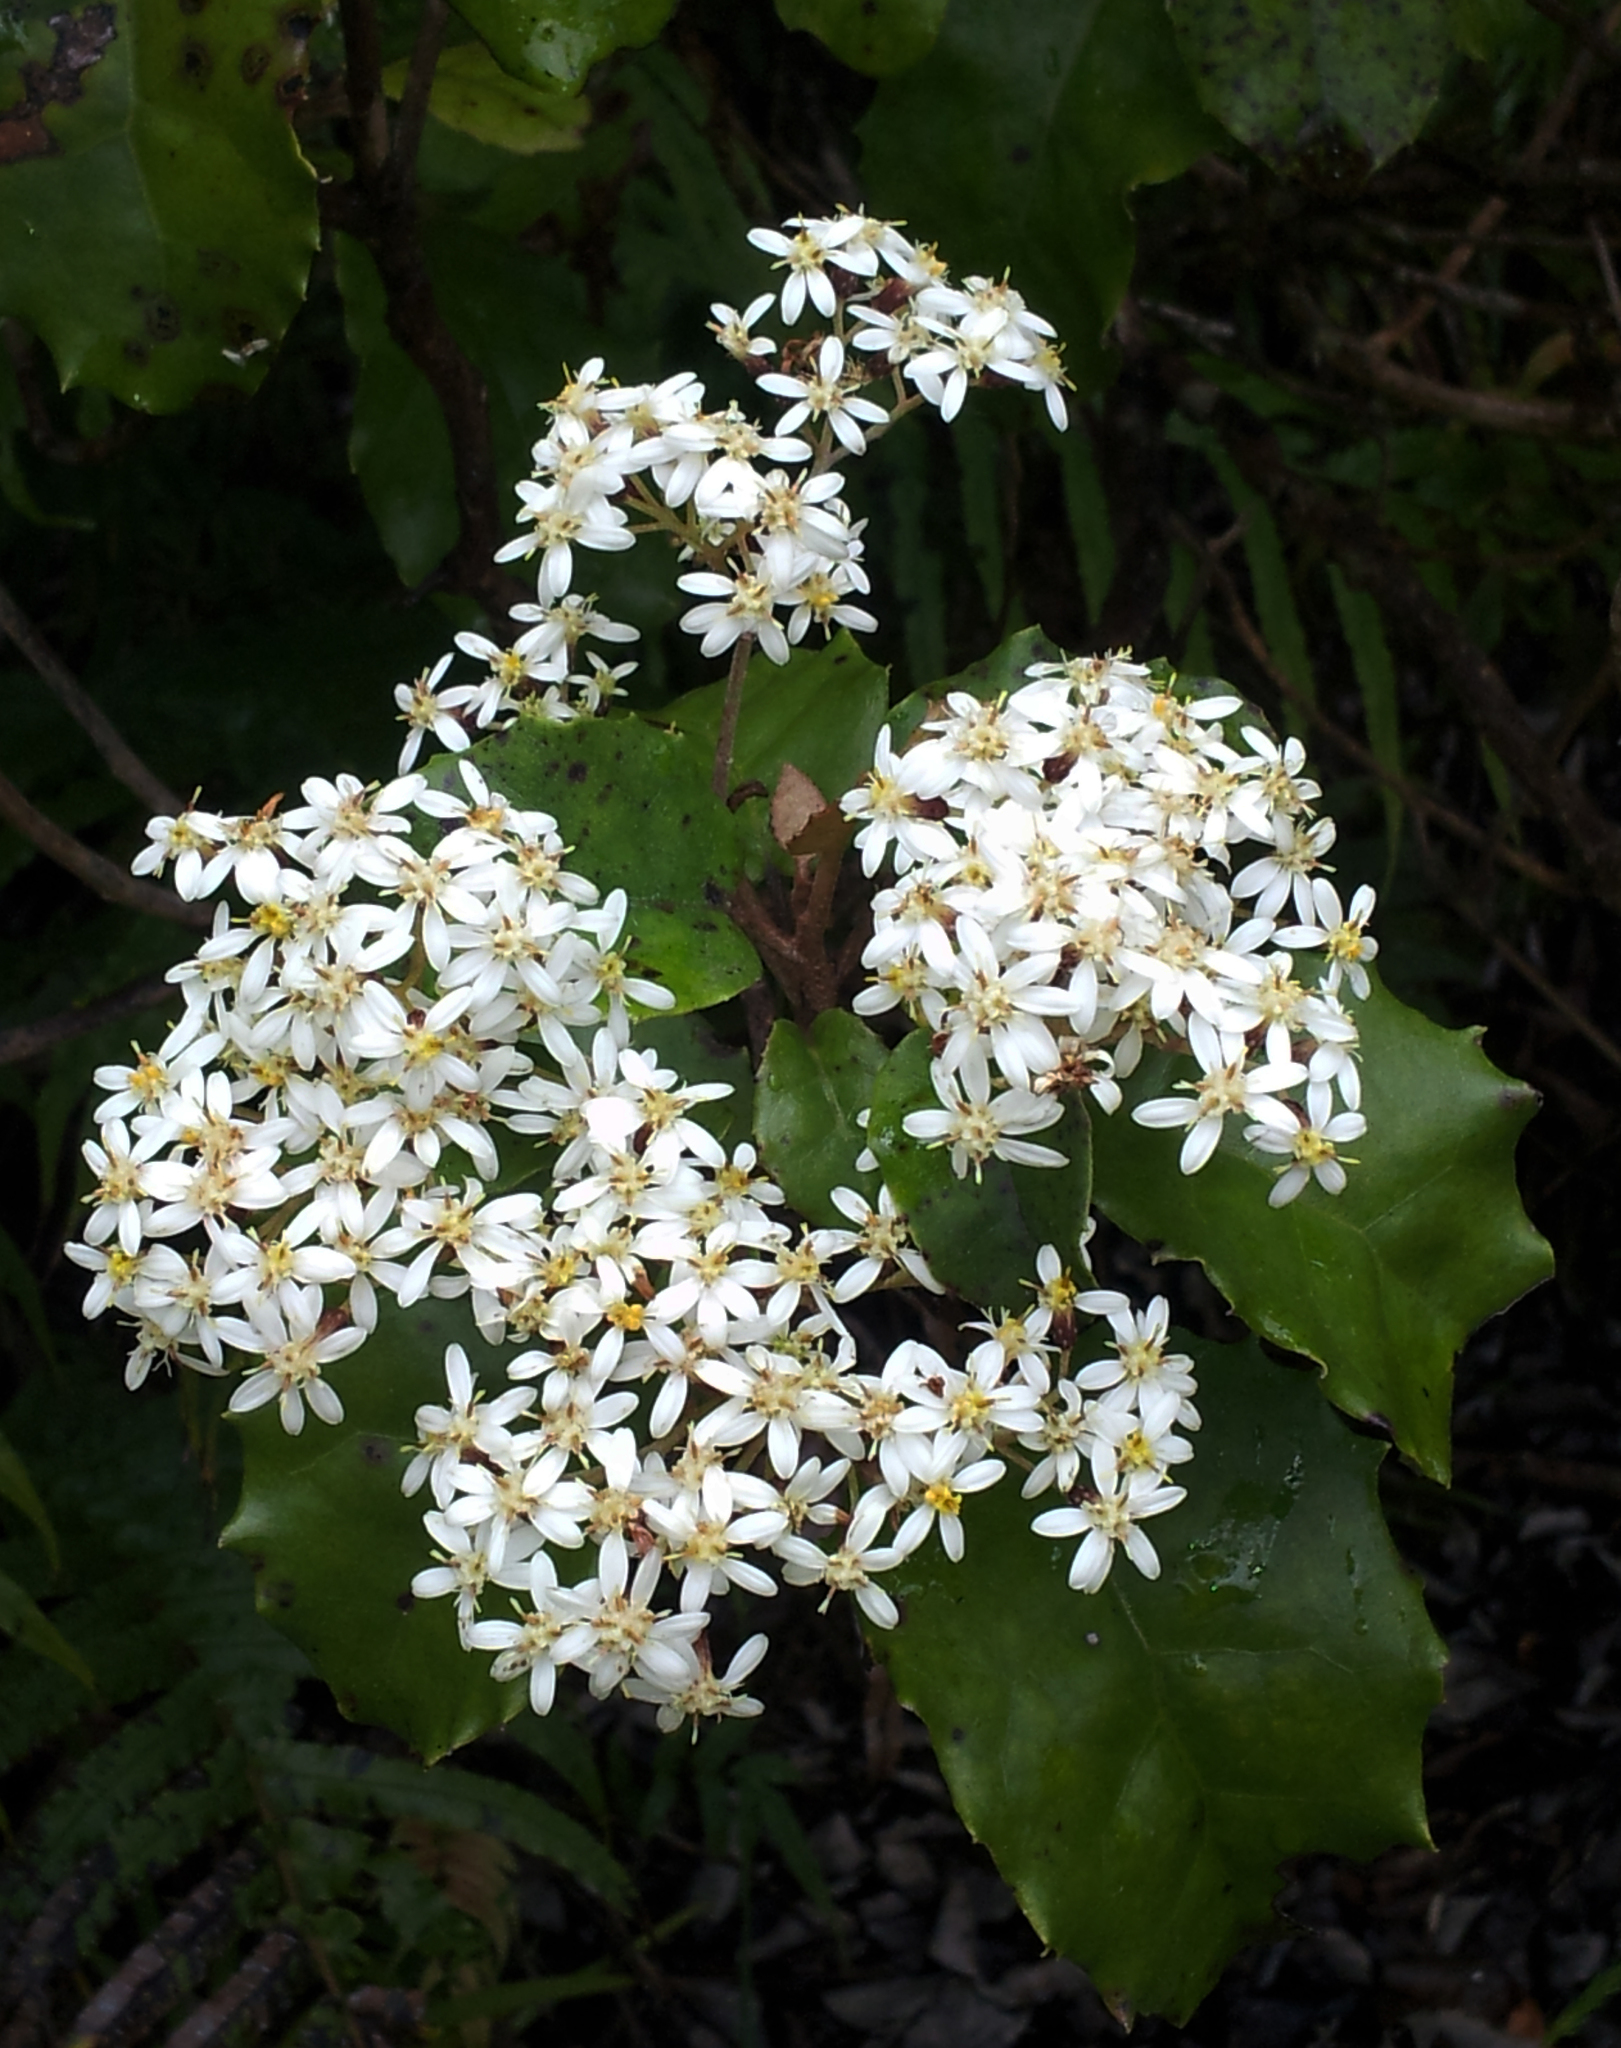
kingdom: Plantae
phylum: Tracheophyta
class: Magnoliopsida
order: Asterales
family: Asteraceae
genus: Olearia
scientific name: Olearia rani
